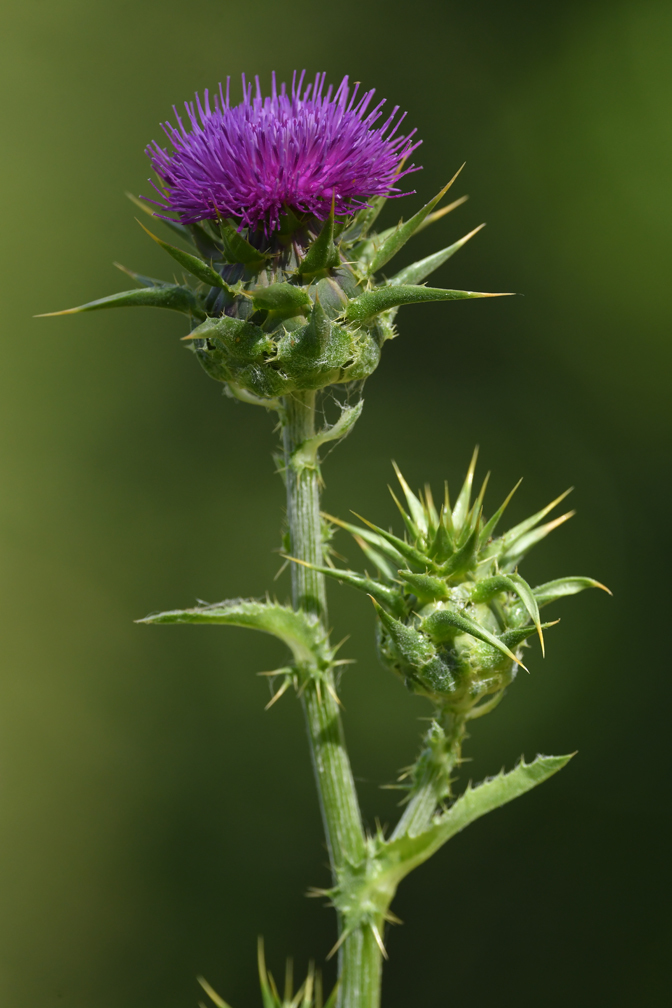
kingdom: Plantae
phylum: Tracheophyta
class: Magnoliopsida
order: Asterales
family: Asteraceae
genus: Silybum
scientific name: Silybum marianum
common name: Milk thistle
